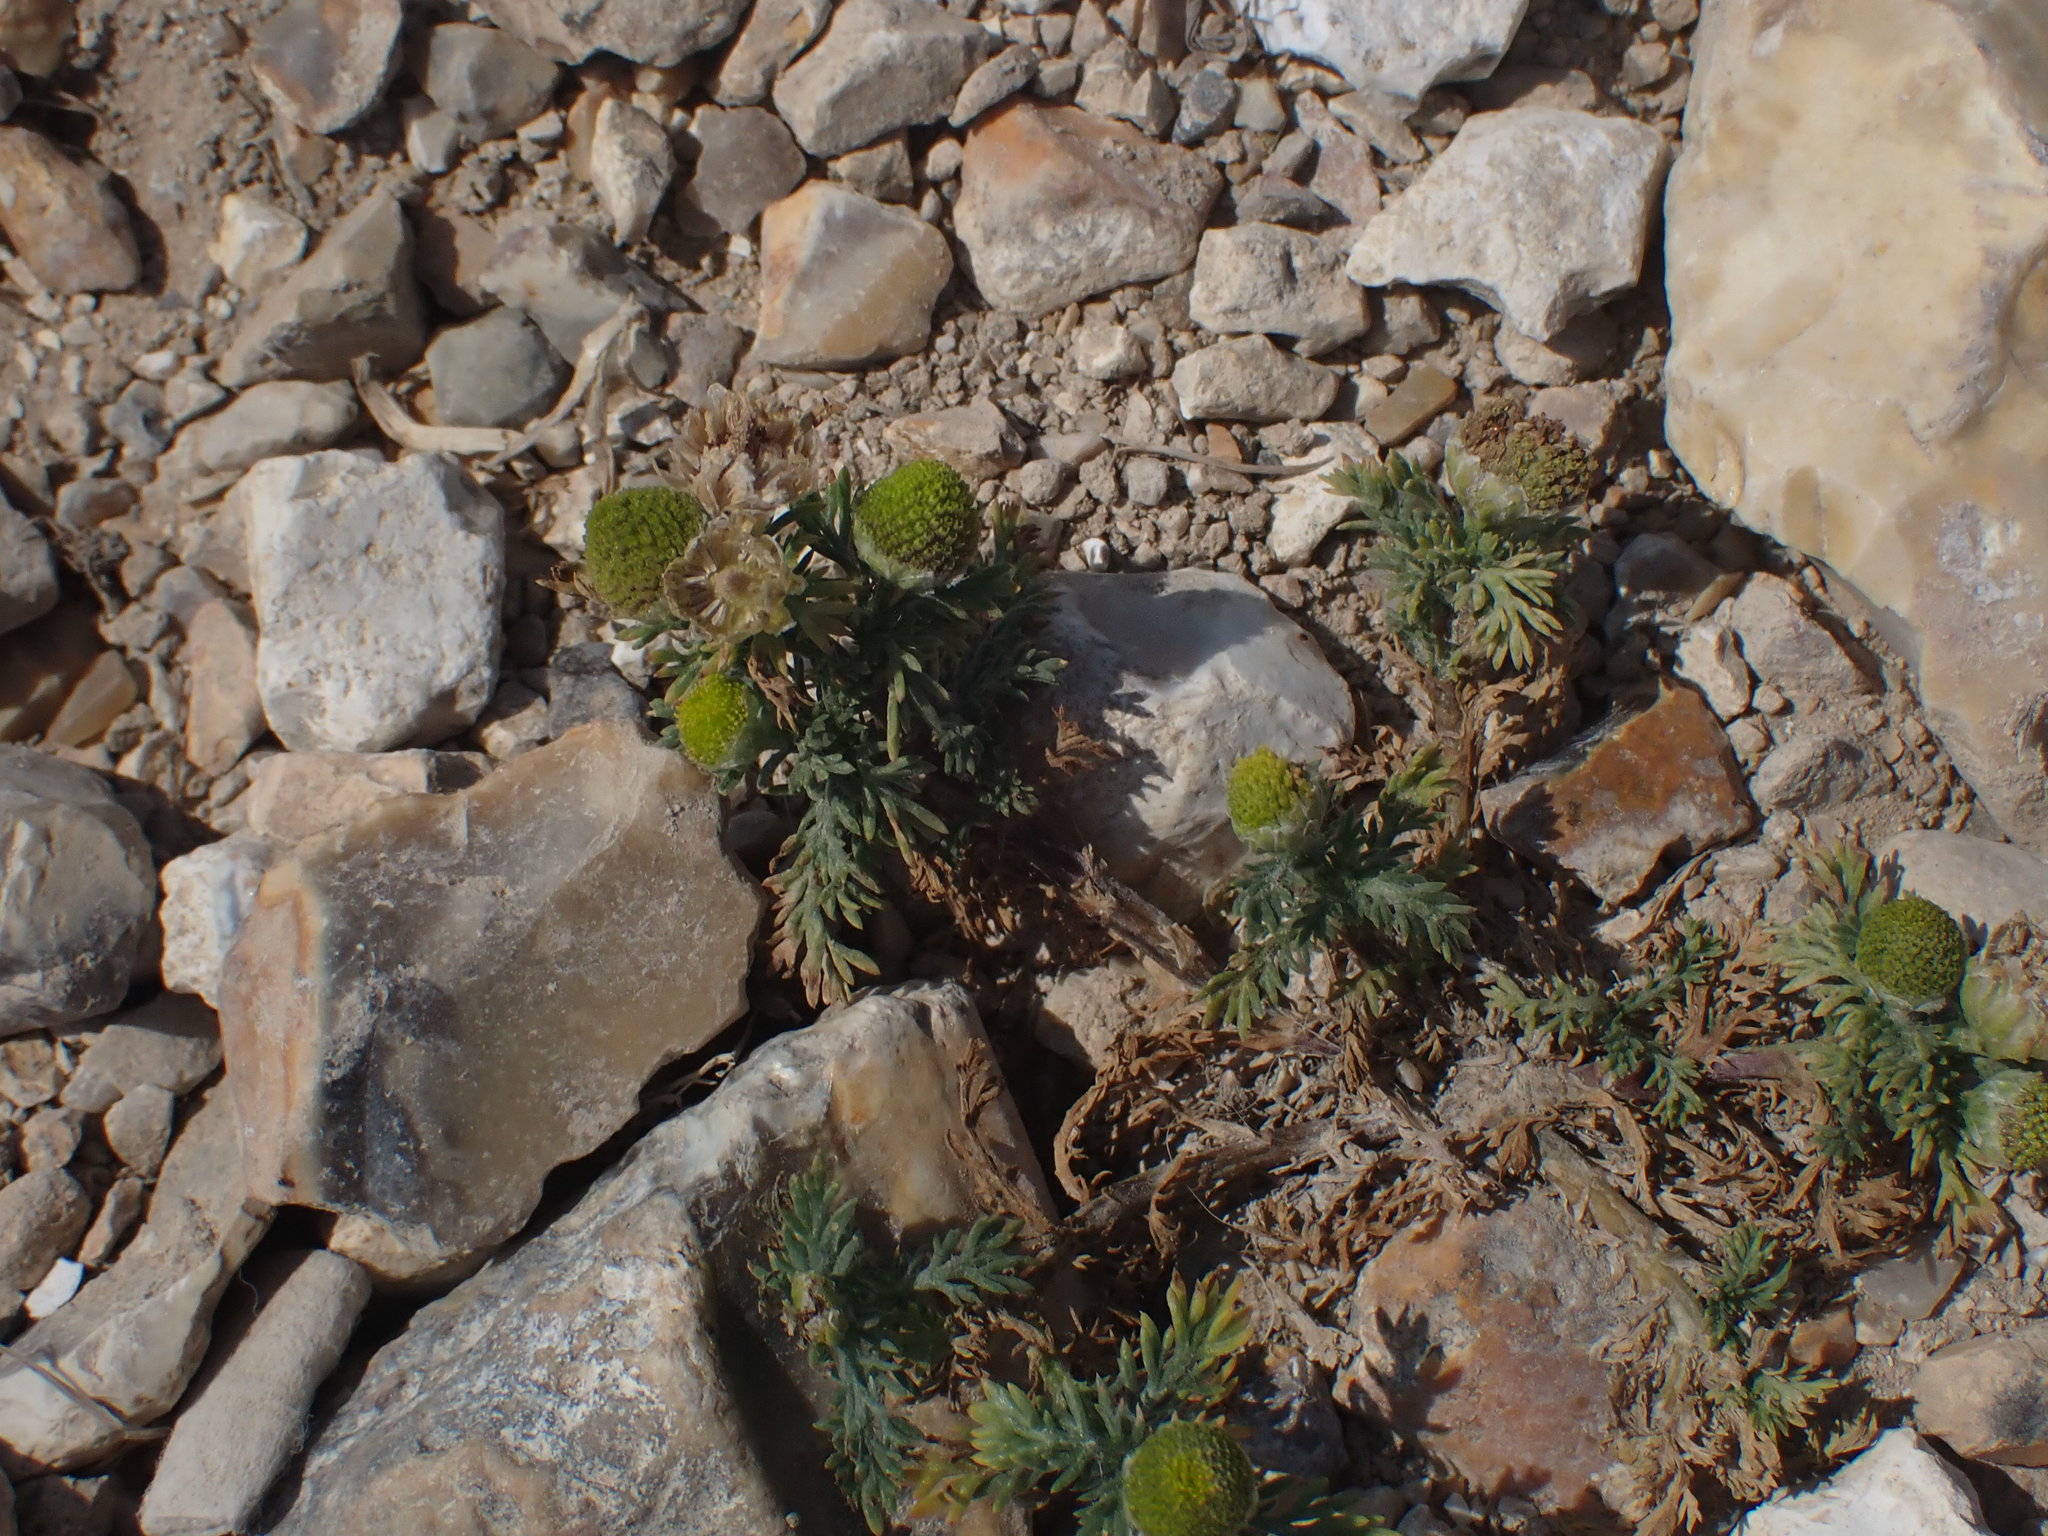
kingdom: Plantae
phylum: Tracheophyta
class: Magnoliopsida
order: Asterales
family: Asteraceae
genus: Matricaria
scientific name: Matricaria discoidea
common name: Disc mayweed
